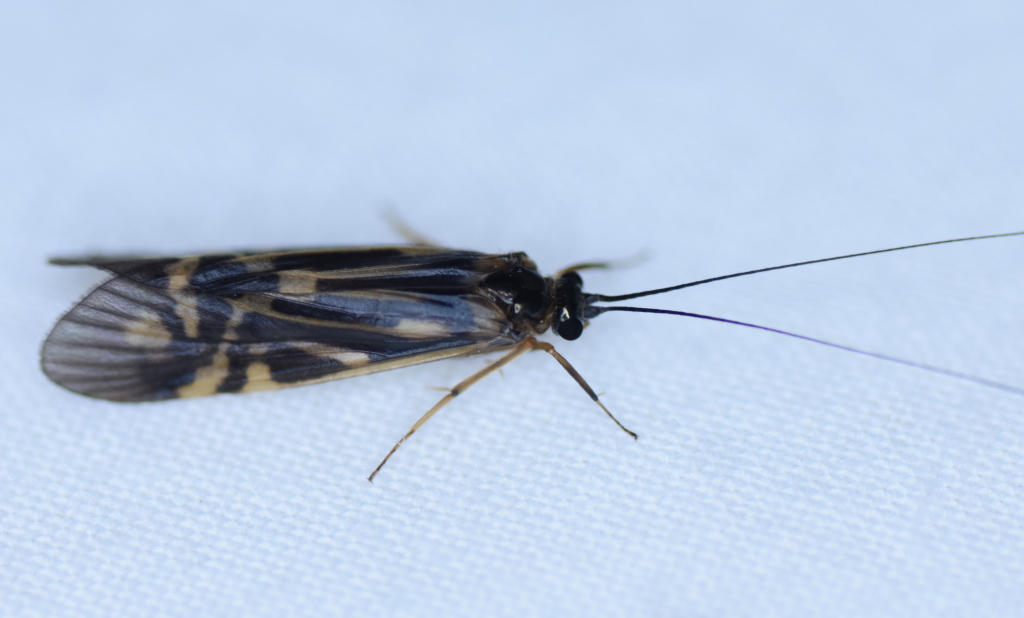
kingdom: Animalia
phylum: Arthropoda
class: Insecta
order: Trichoptera
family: Hydropsychidae
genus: Macrostemum
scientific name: Macrostemum zebratum
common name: Zebra caddisfly
